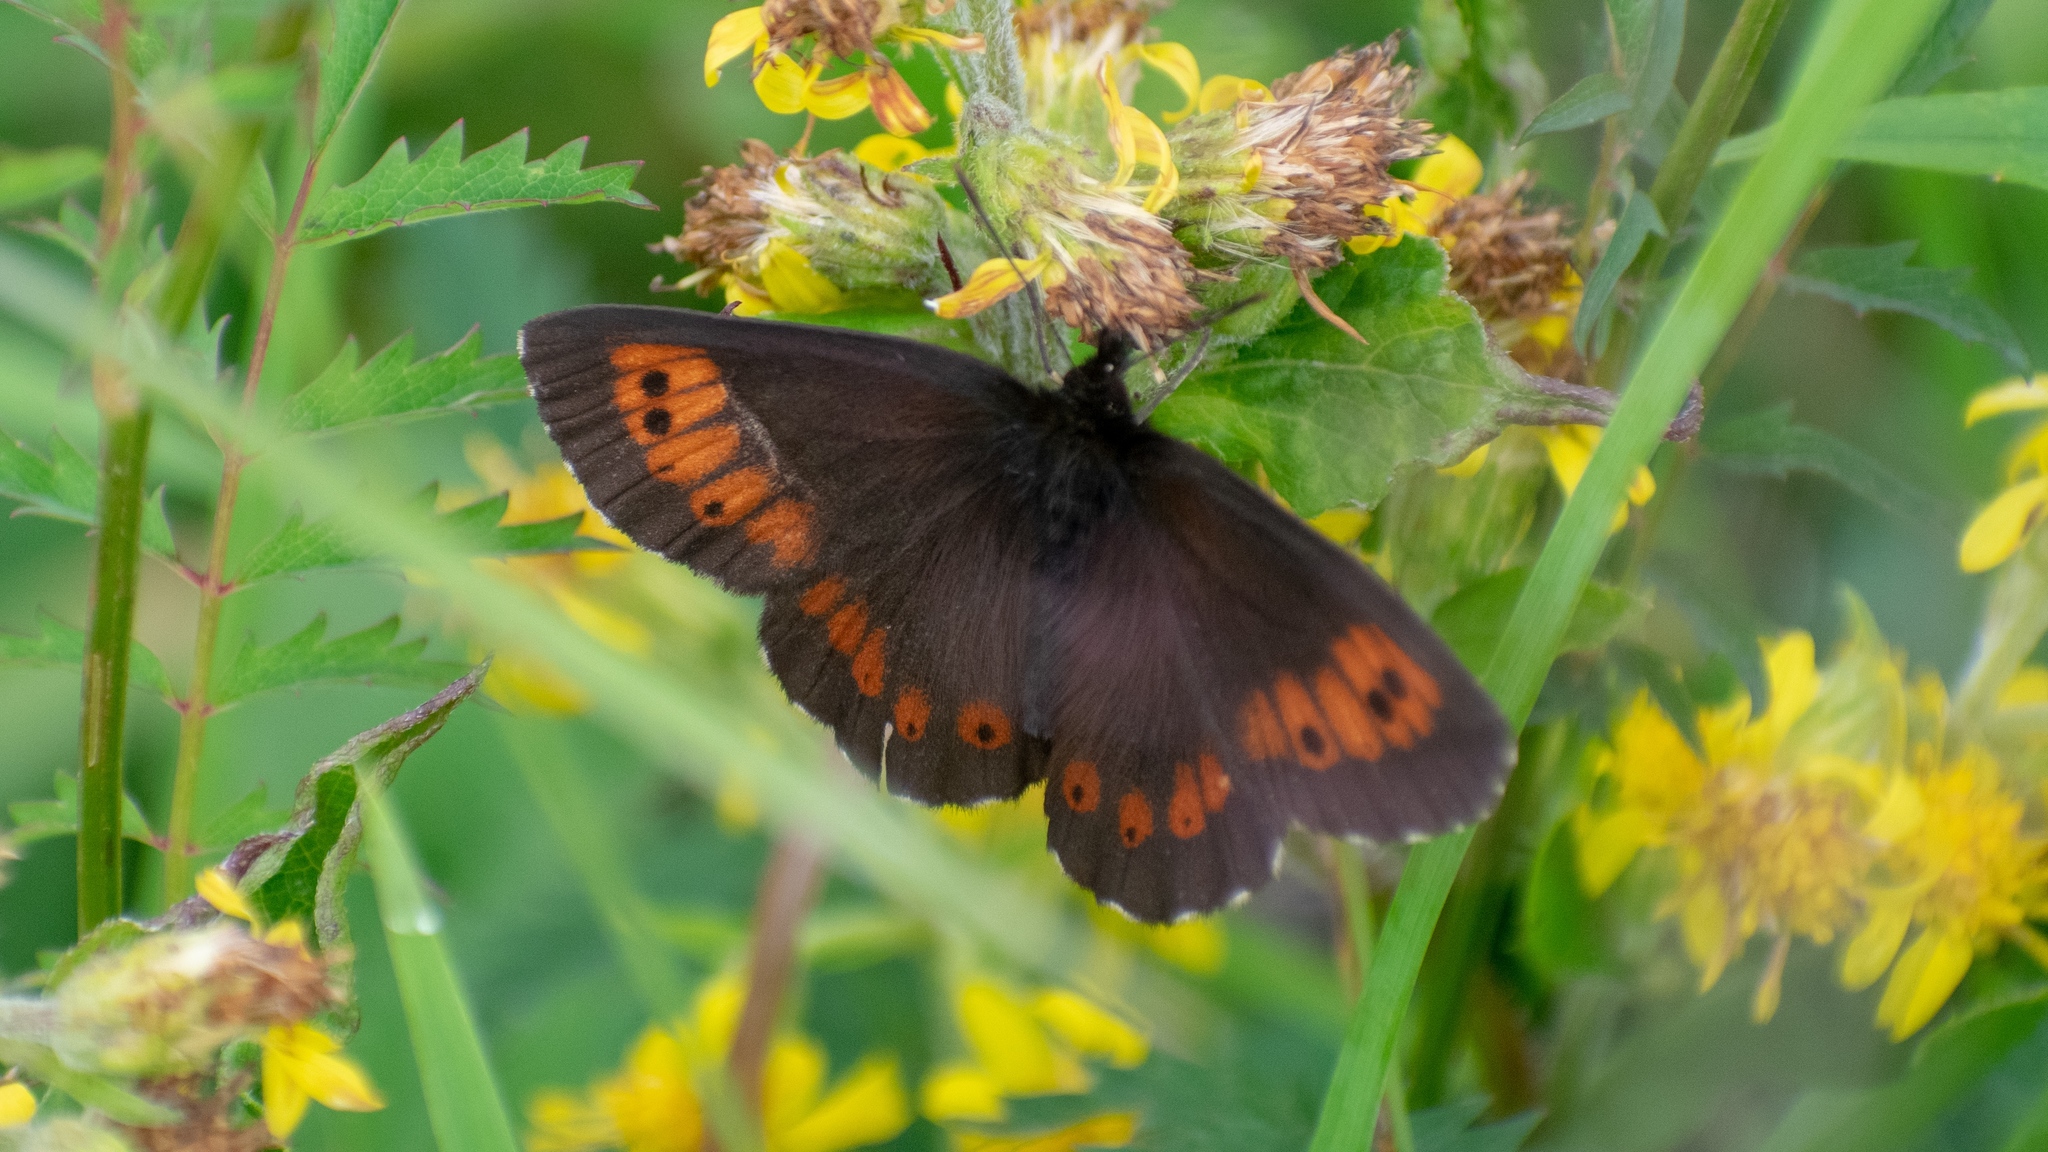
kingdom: Animalia
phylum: Arthropoda
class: Insecta
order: Lepidoptera
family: Nymphalidae
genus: Erebia
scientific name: Erebia euryale
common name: Large ringlet
